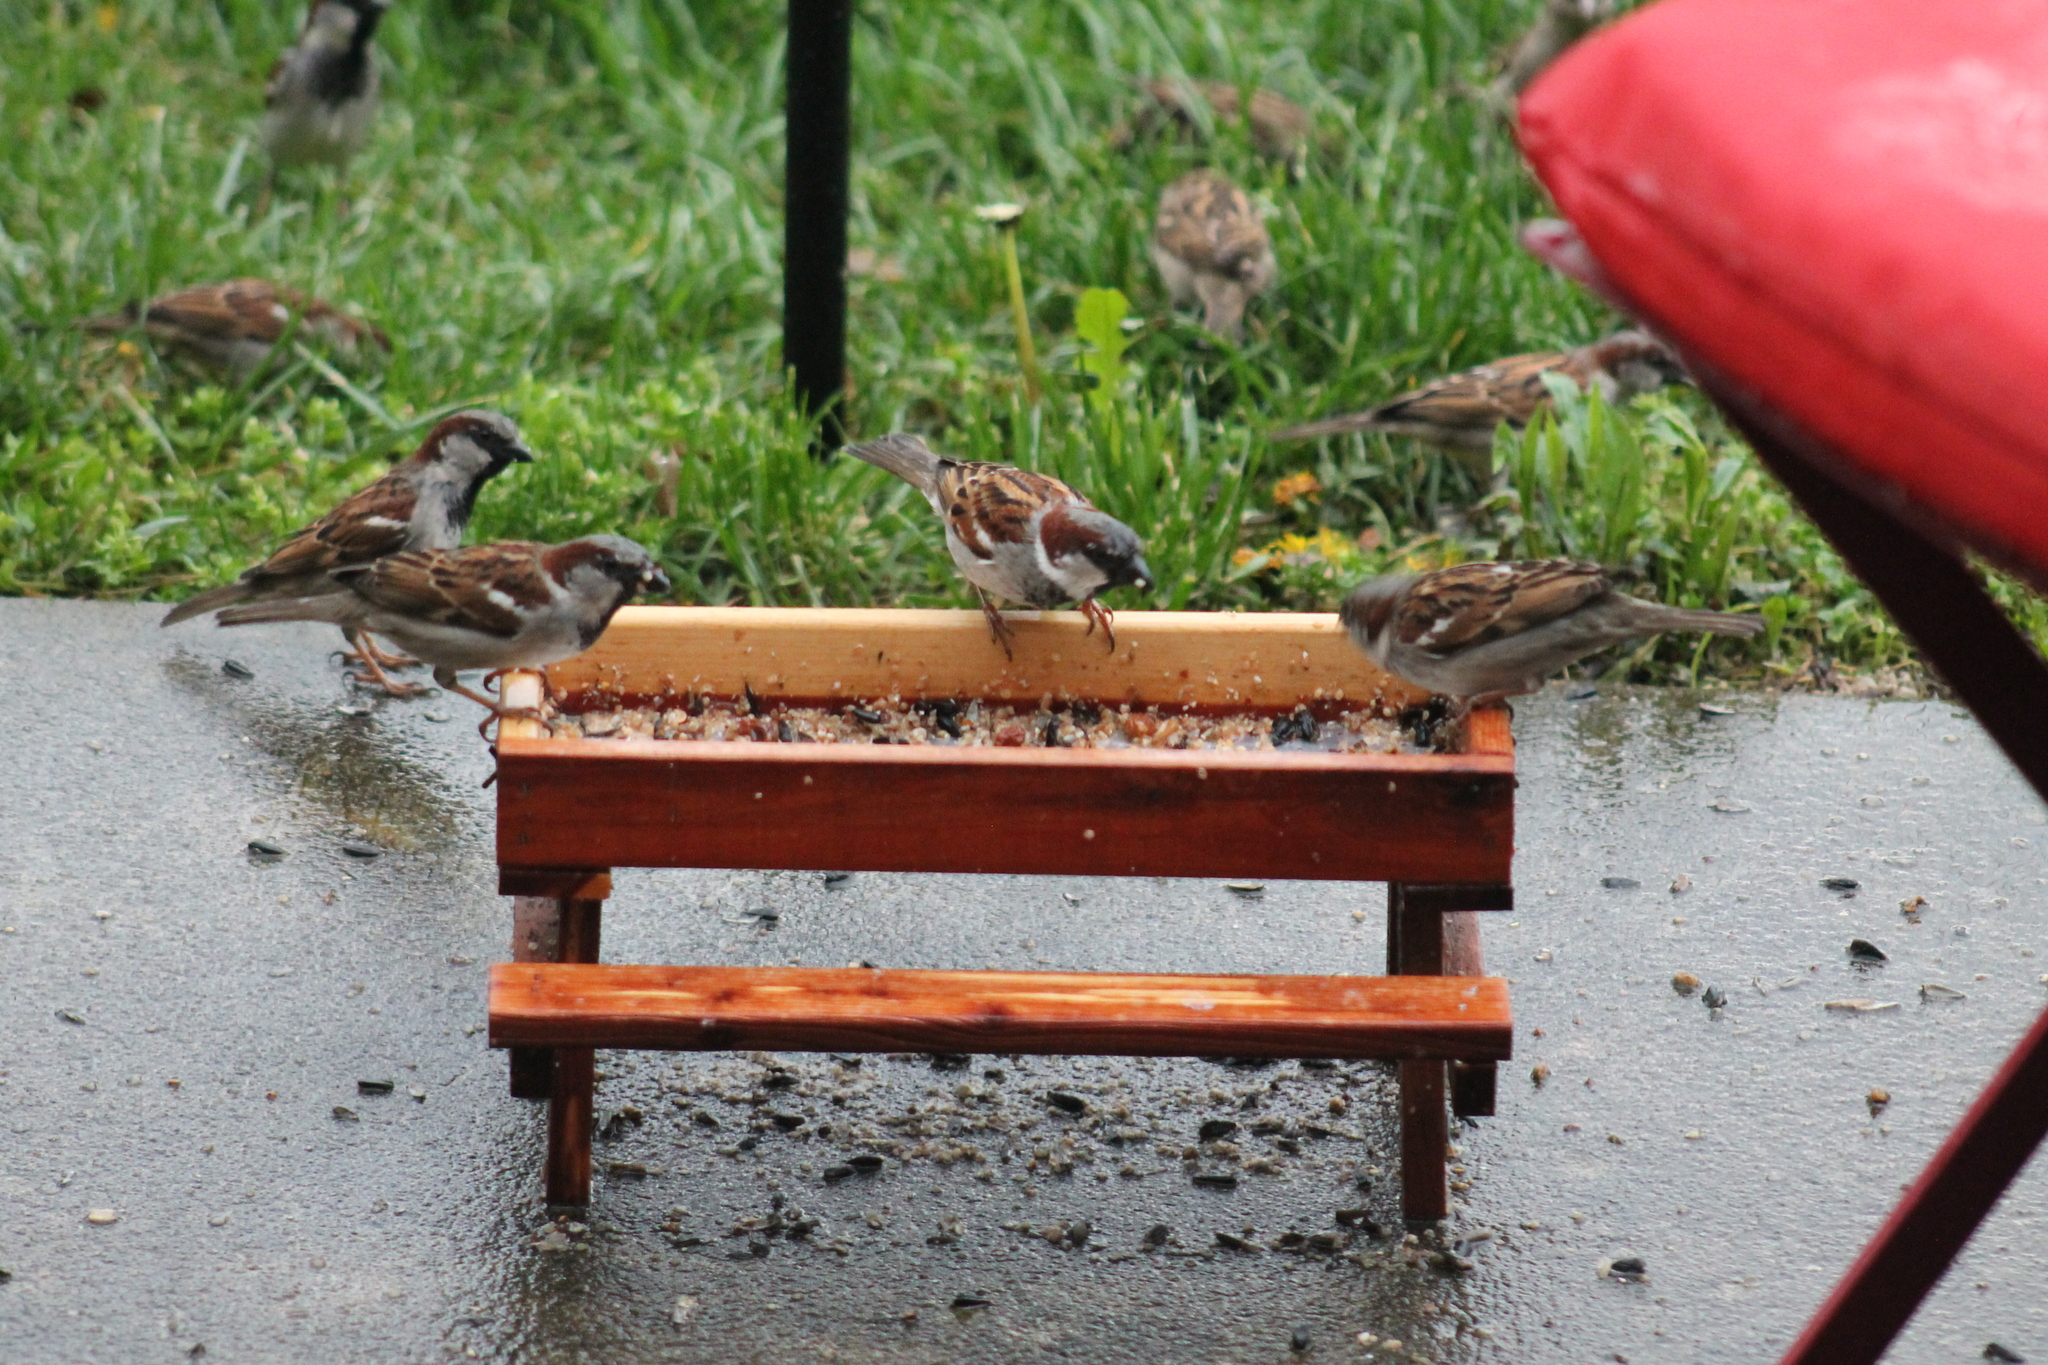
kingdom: Animalia
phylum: Chordata
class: Aves
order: Passeriformes
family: Passeridae
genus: Passer
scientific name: Passer domesticus
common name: House sparrow
